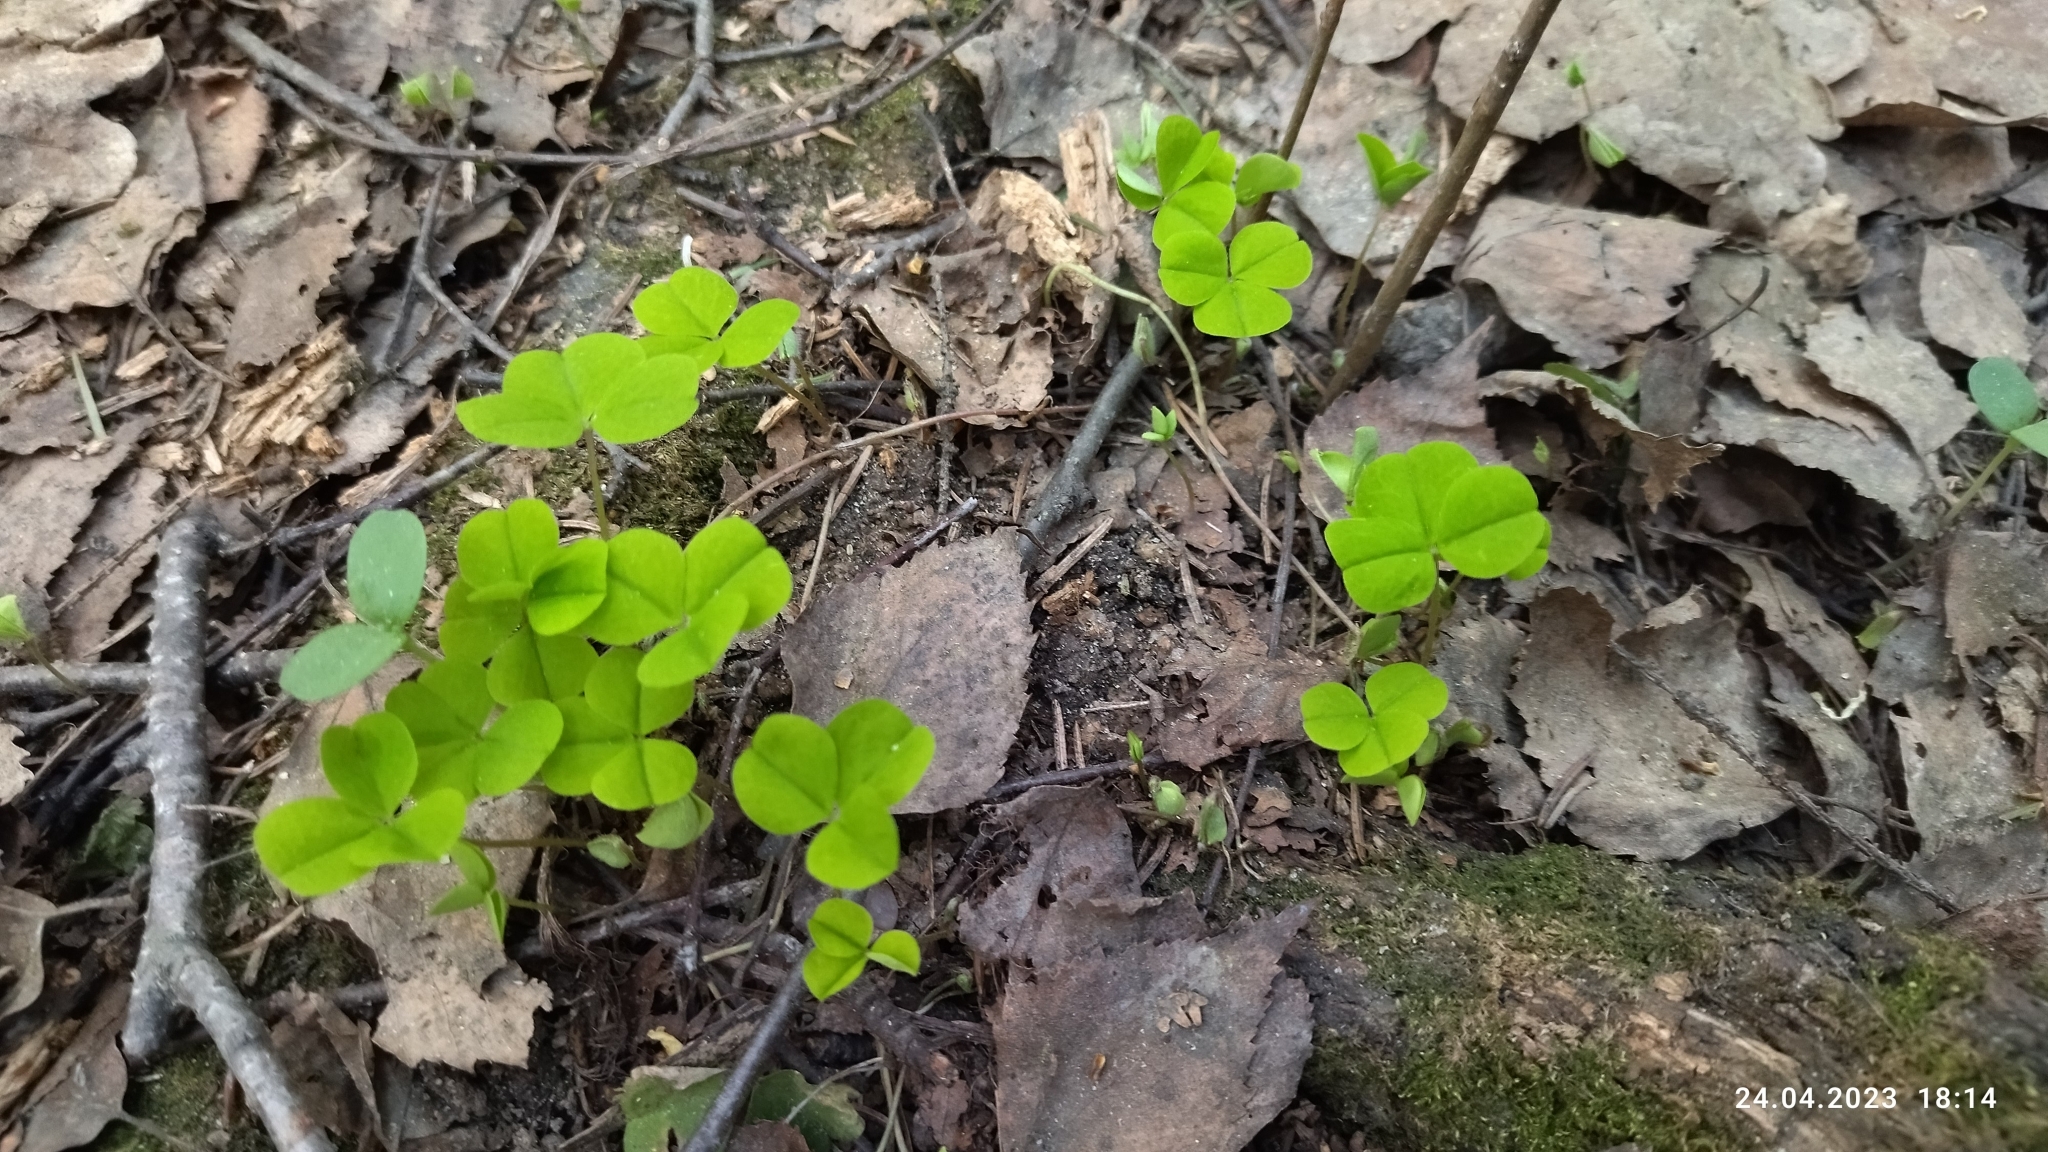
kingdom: Plantae
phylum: Tracheophyta
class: Magnoliopsida
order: Oxalidales
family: Oxalidaceae
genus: Oxalis
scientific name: Oxalis acetosella
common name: Wood-sorrel
